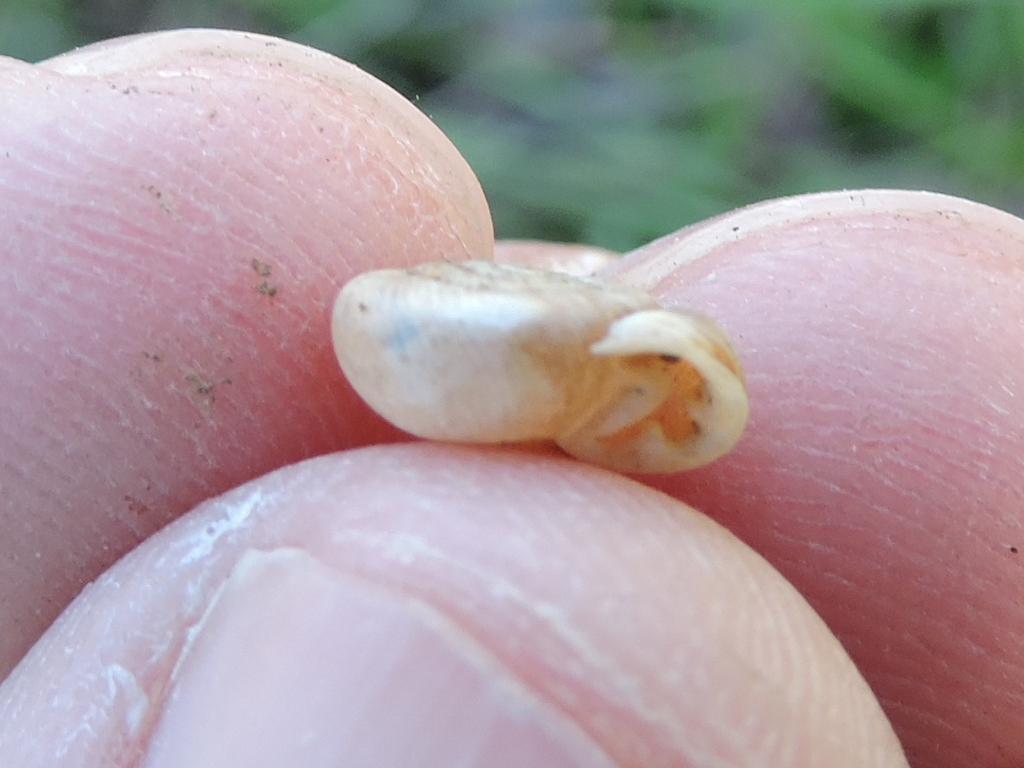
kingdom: Animalia
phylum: Mollusca
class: Gastropoda
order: Stylommatophora
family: Polygyridae
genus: Linisa
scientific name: Linisa texasiana
